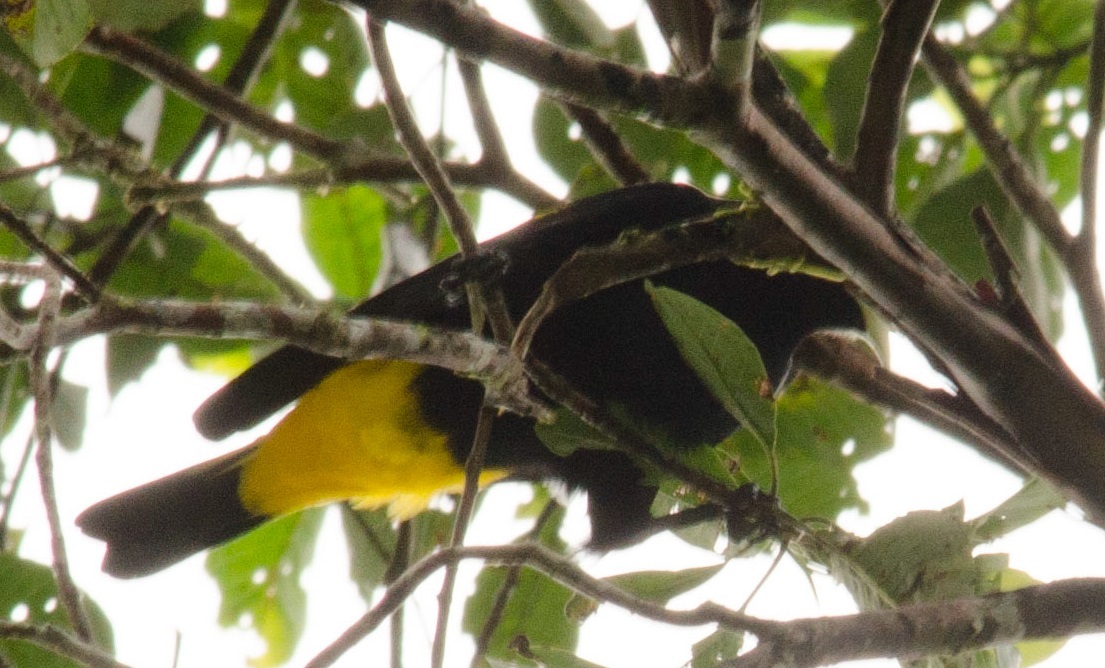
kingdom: Animalia
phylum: Chordata
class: Aves
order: Passeriformes
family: Icteridae
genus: Cacicus
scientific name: Cacicus cela
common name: Yellow-rumped cacique
